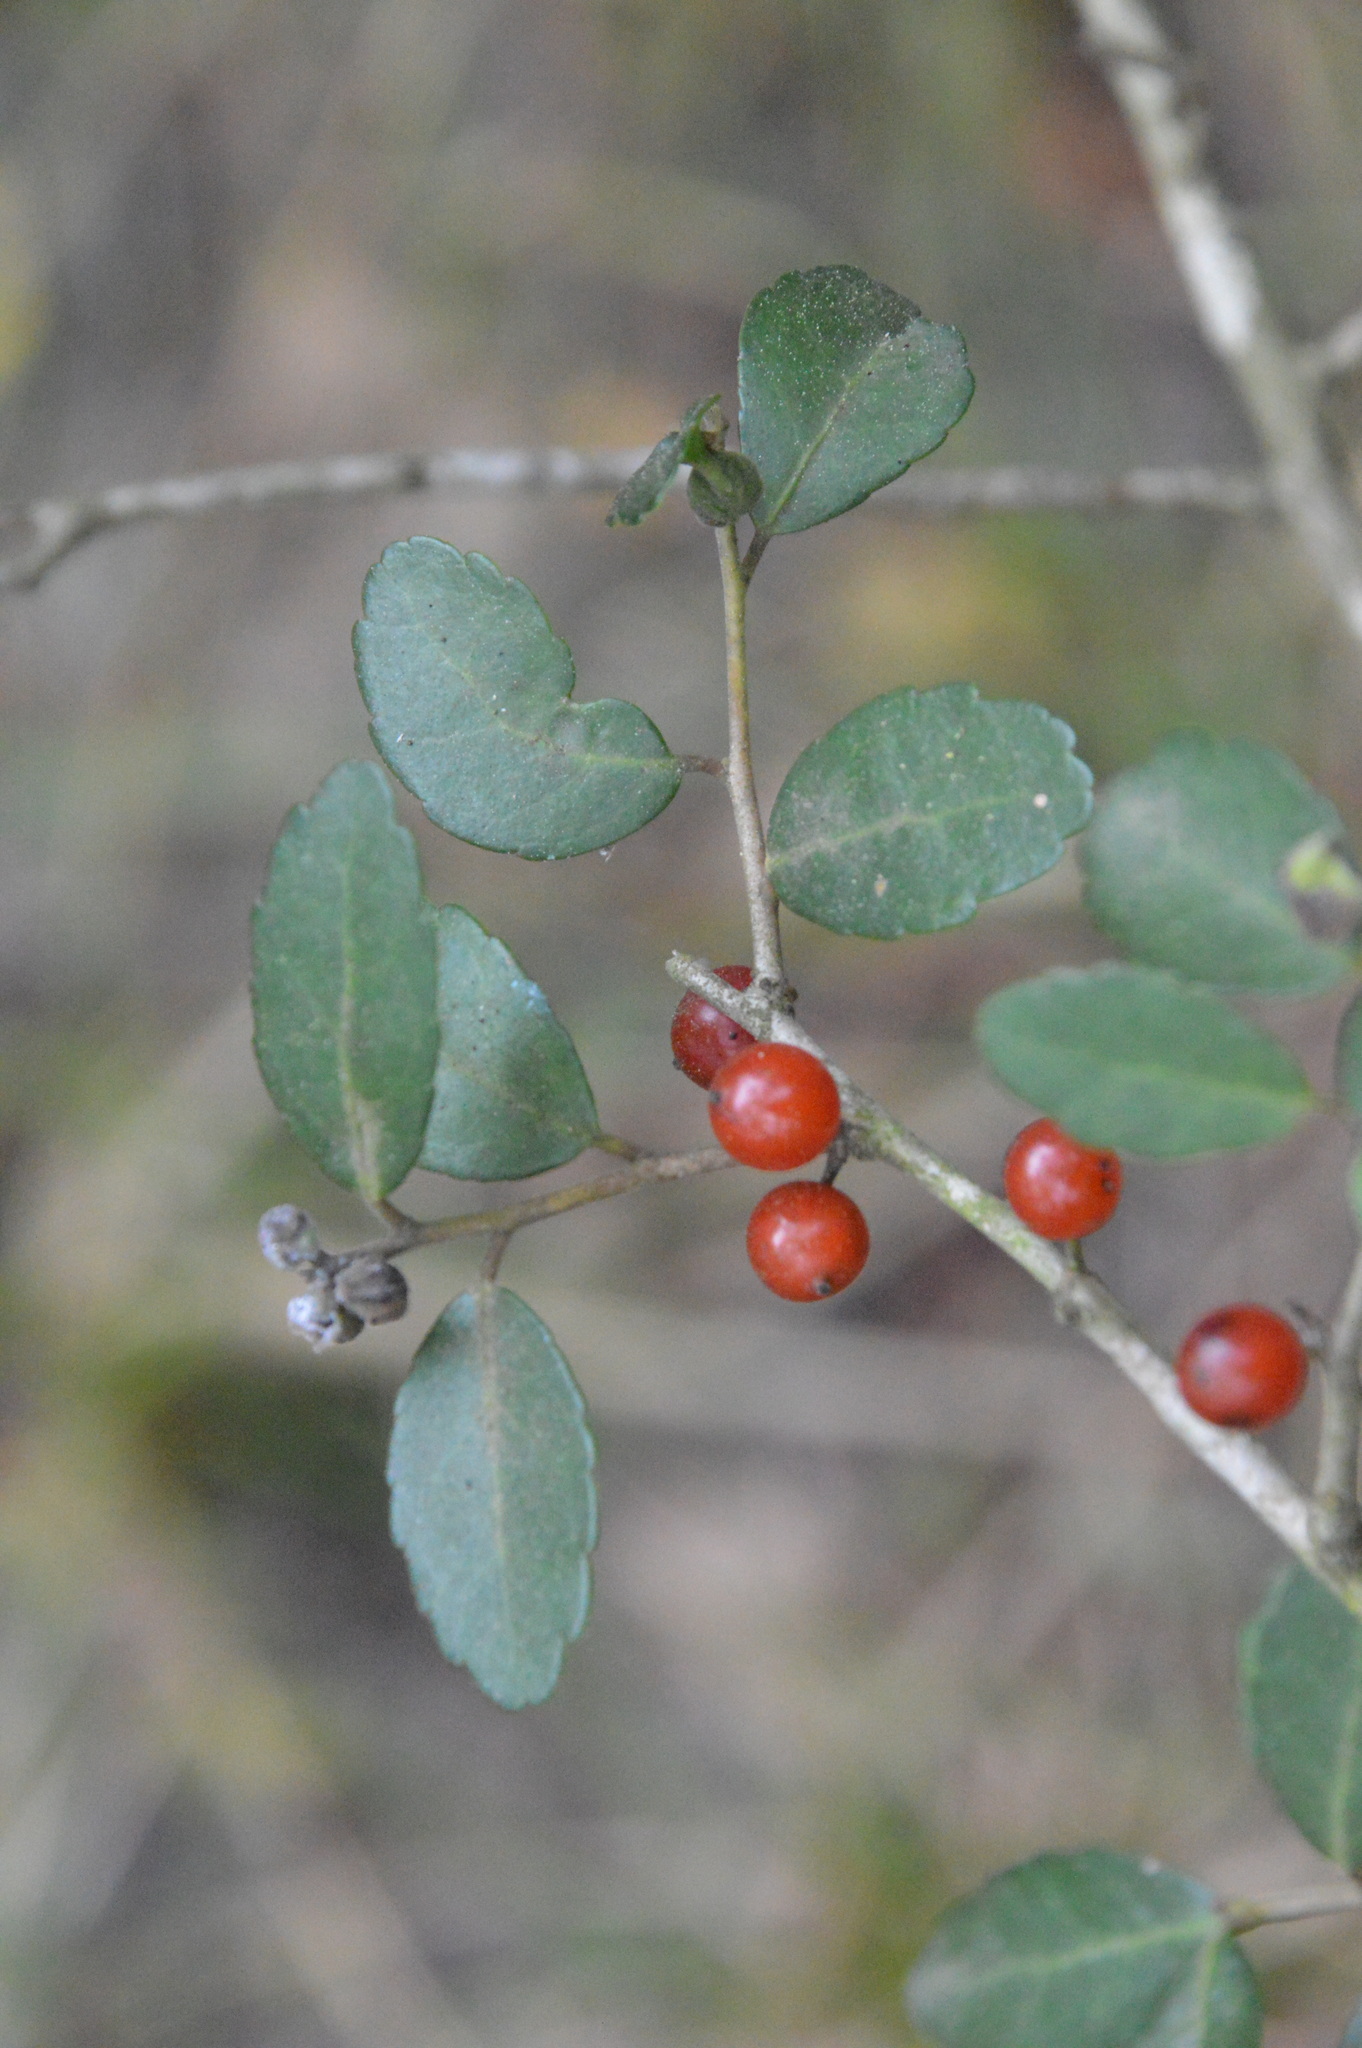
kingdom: Plantae
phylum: Tracheophyta
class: Magnoliopsida
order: Aquifoliales
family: Aquifoliaceae
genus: Ilex
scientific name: Ilex vomitoria
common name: Yaupon holly
